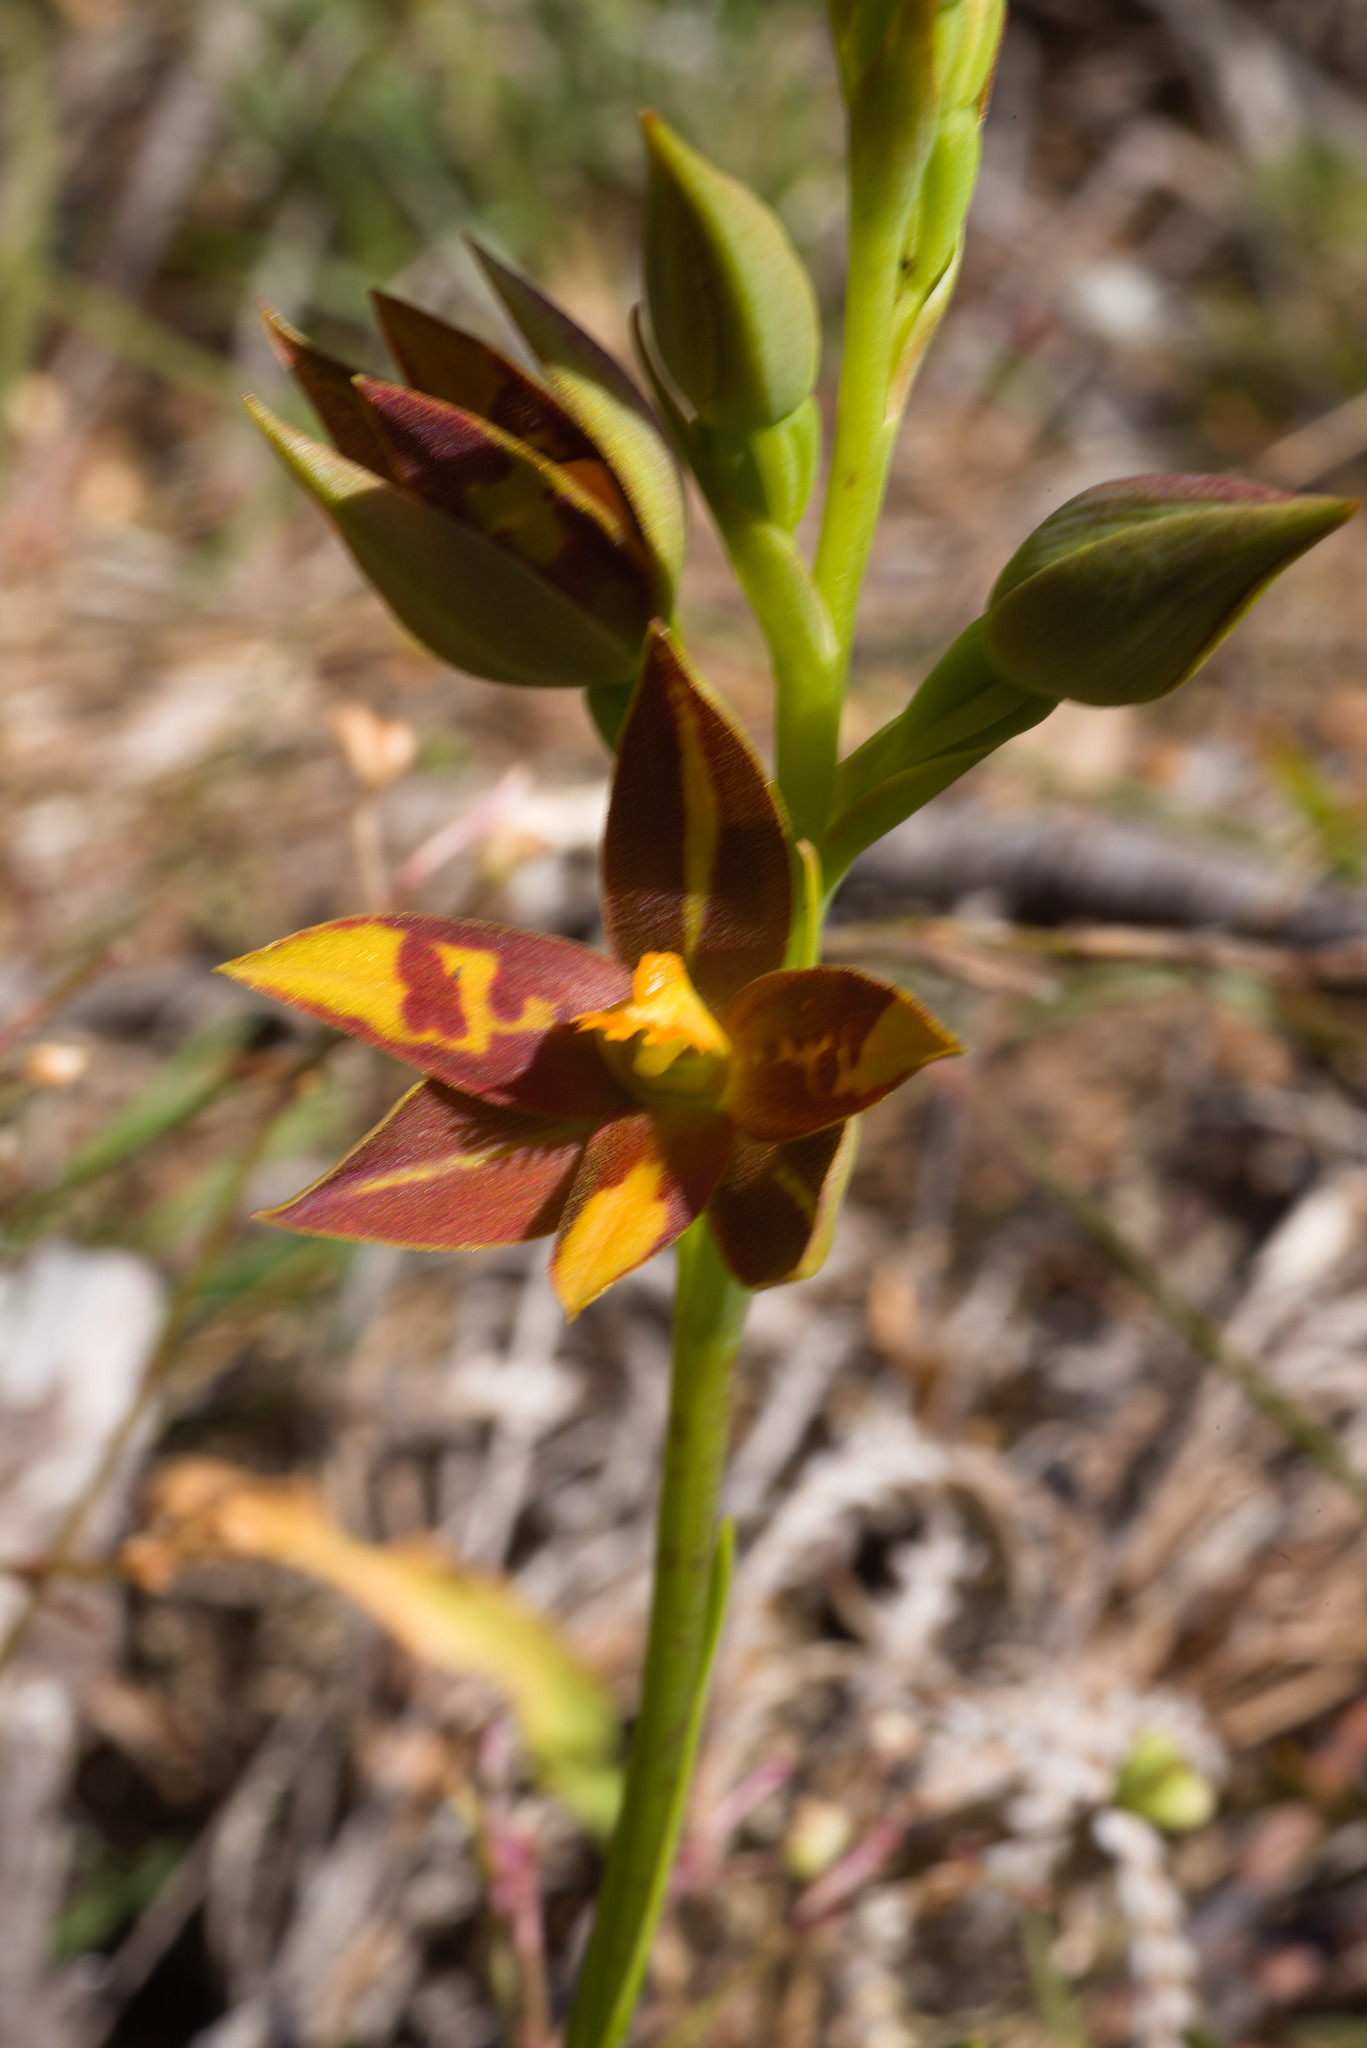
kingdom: Plantae
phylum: Tracheophyta
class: Liliopsida
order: Asparagales
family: Orchidaceae
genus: Thelymitra
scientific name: Thelymitra magnifica
